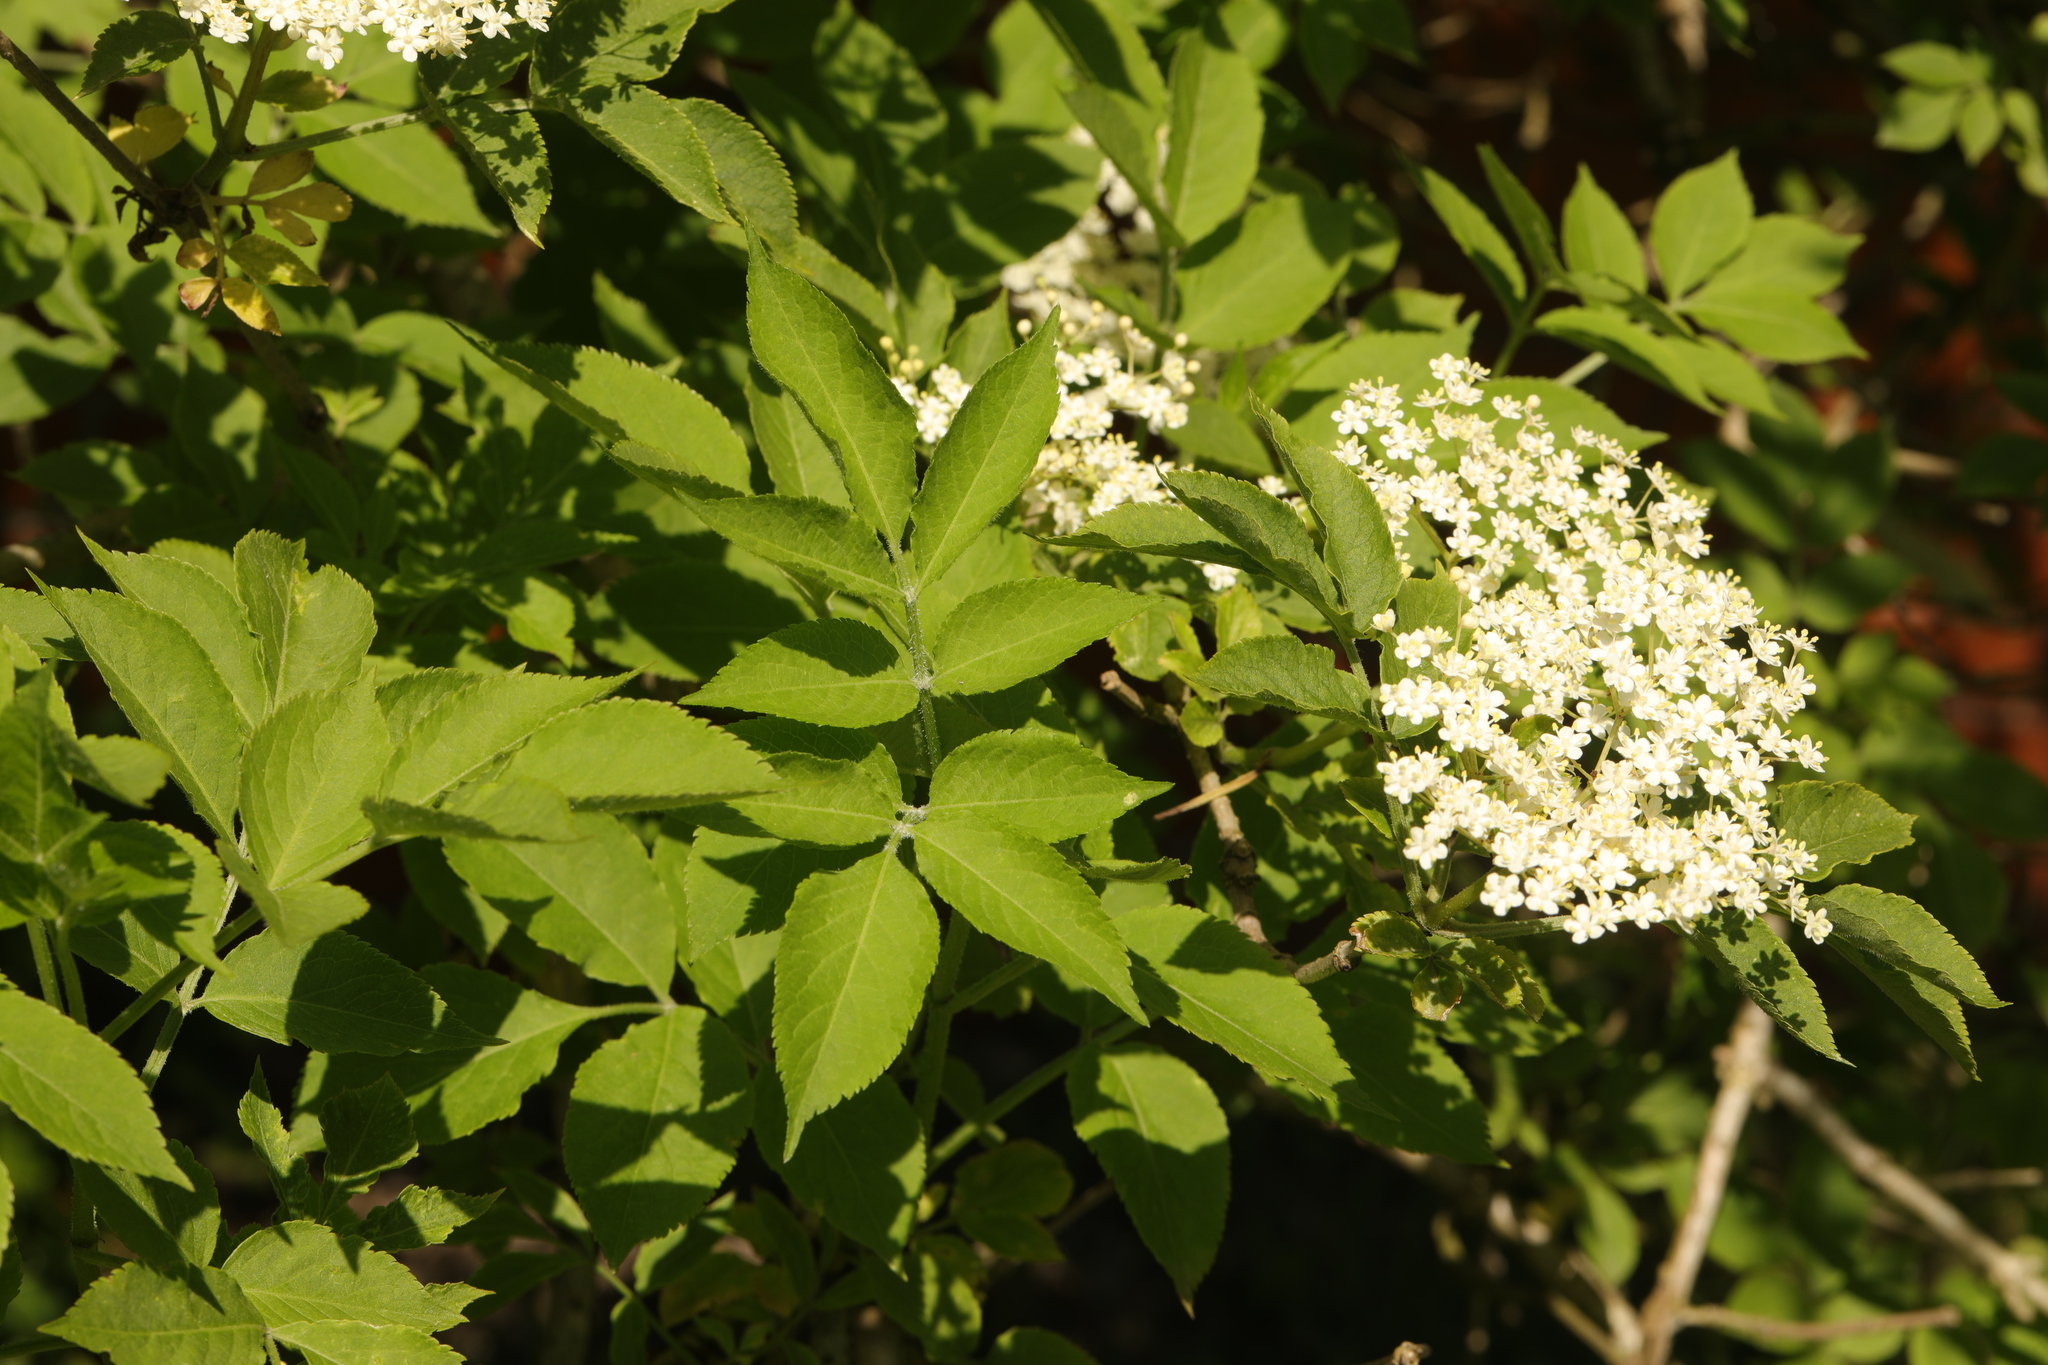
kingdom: Plantae
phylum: Tracheophyta
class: Magnoliopsida
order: Dipsacales
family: Viburnaceae
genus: Sambucus
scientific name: Sambucus nigra
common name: Elder
